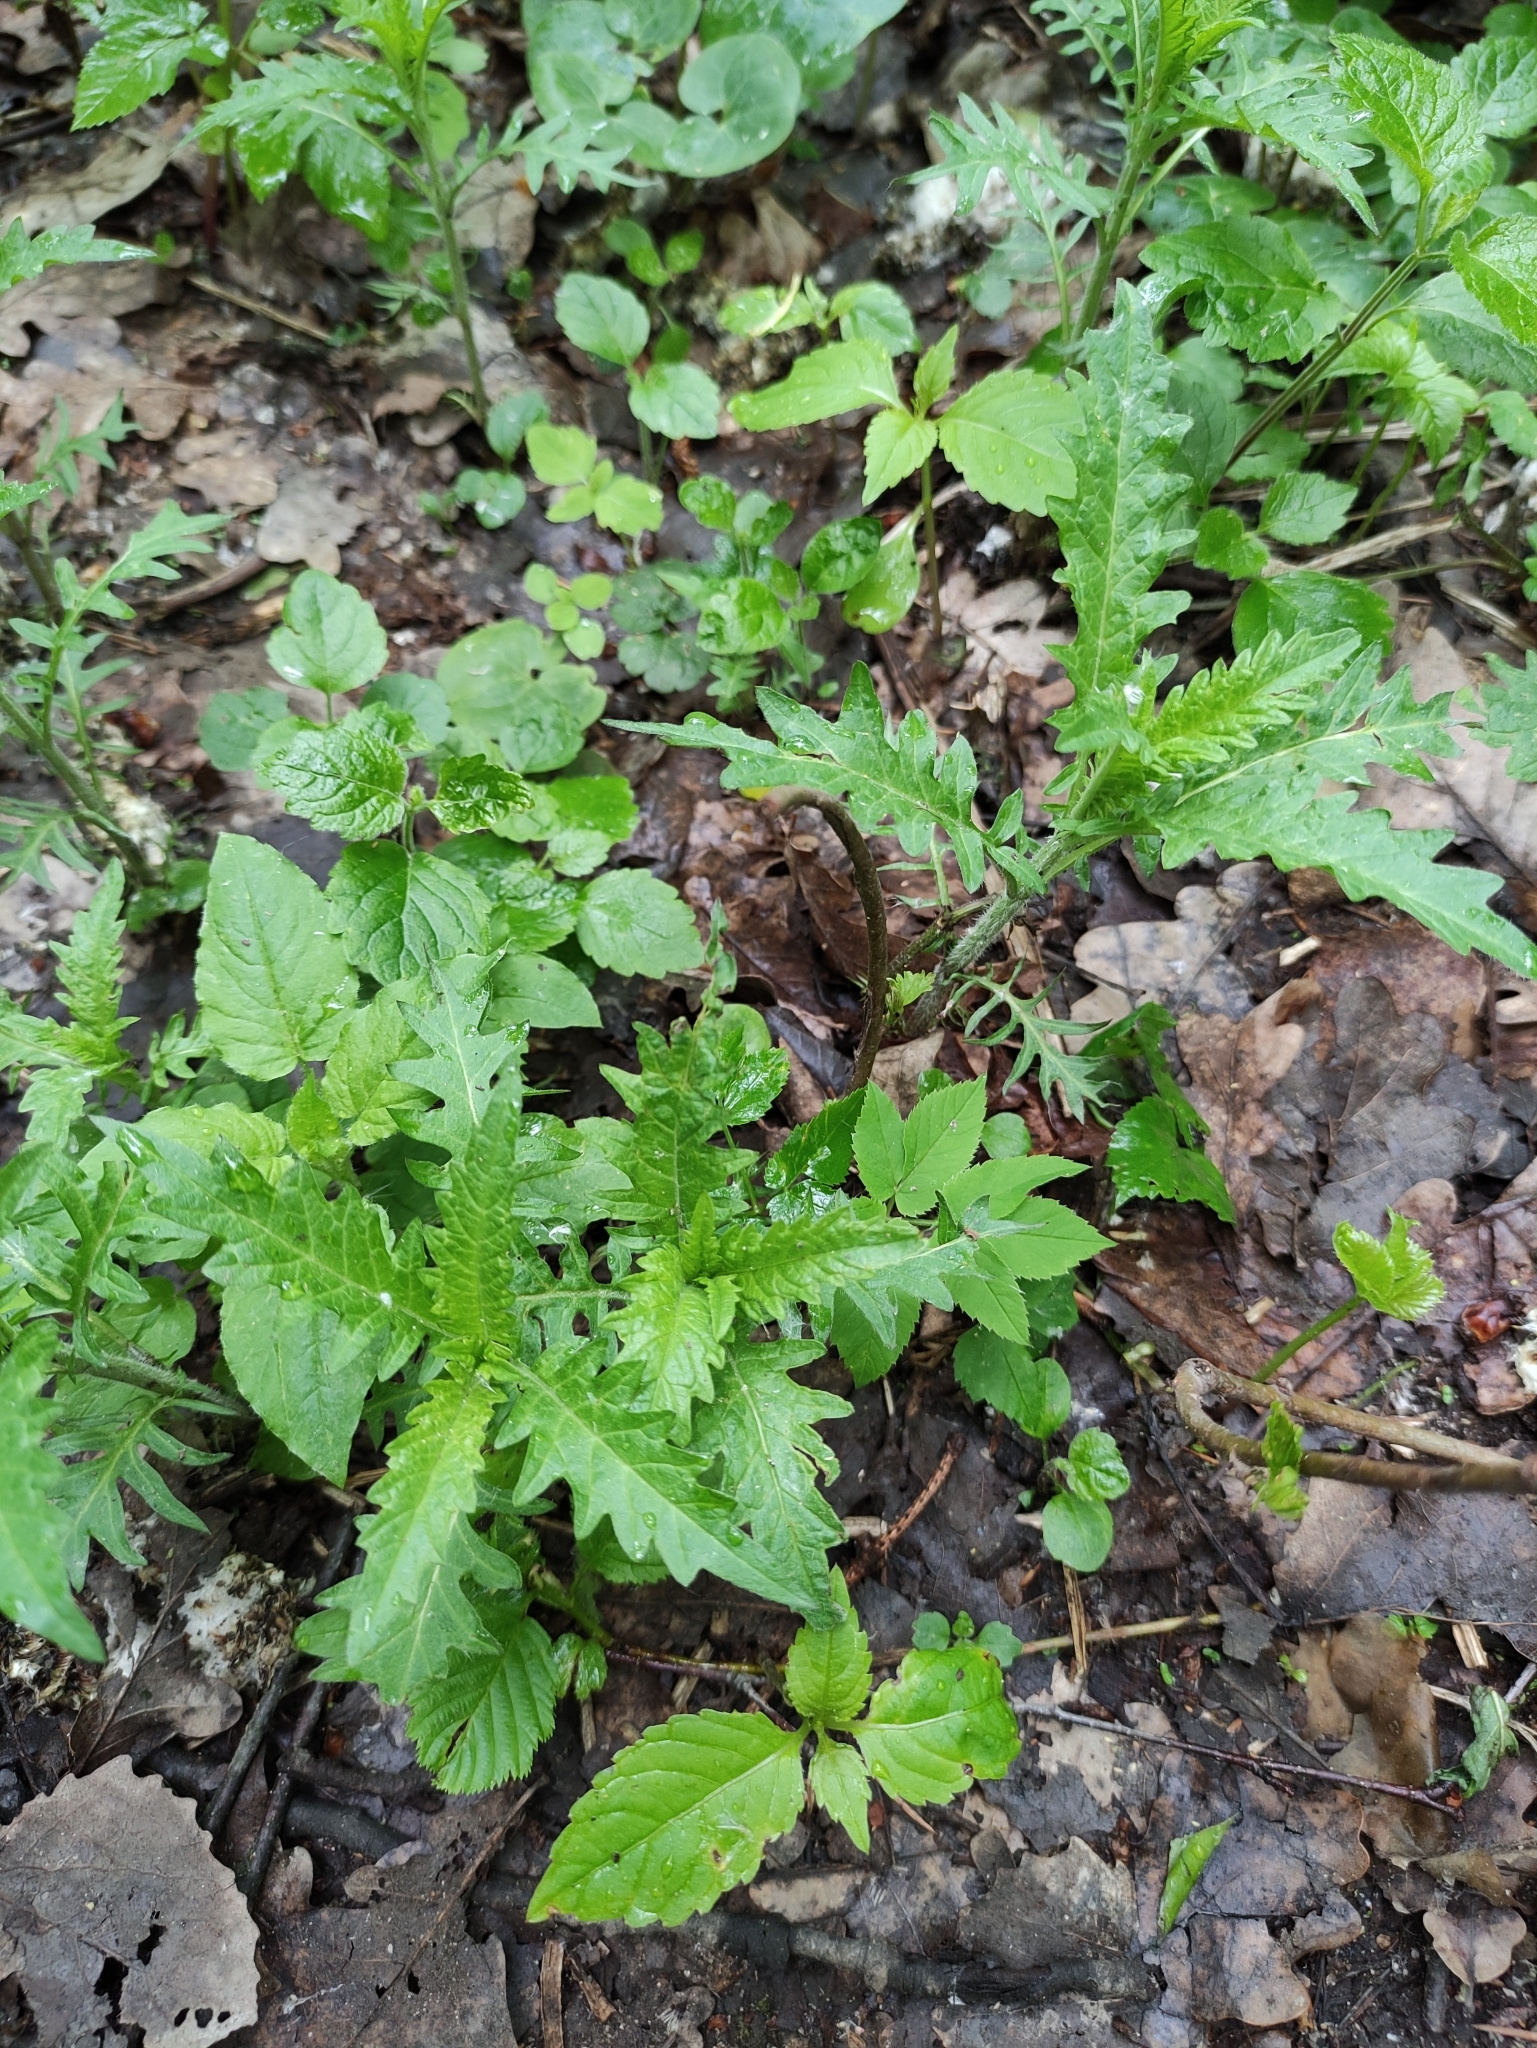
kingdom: Plantae
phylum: Tracheophyta
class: Magnoliopsida
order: Lamiales
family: Lamiaceae
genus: Lycopus
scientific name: Lycopus europaeus
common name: European bugleweed
